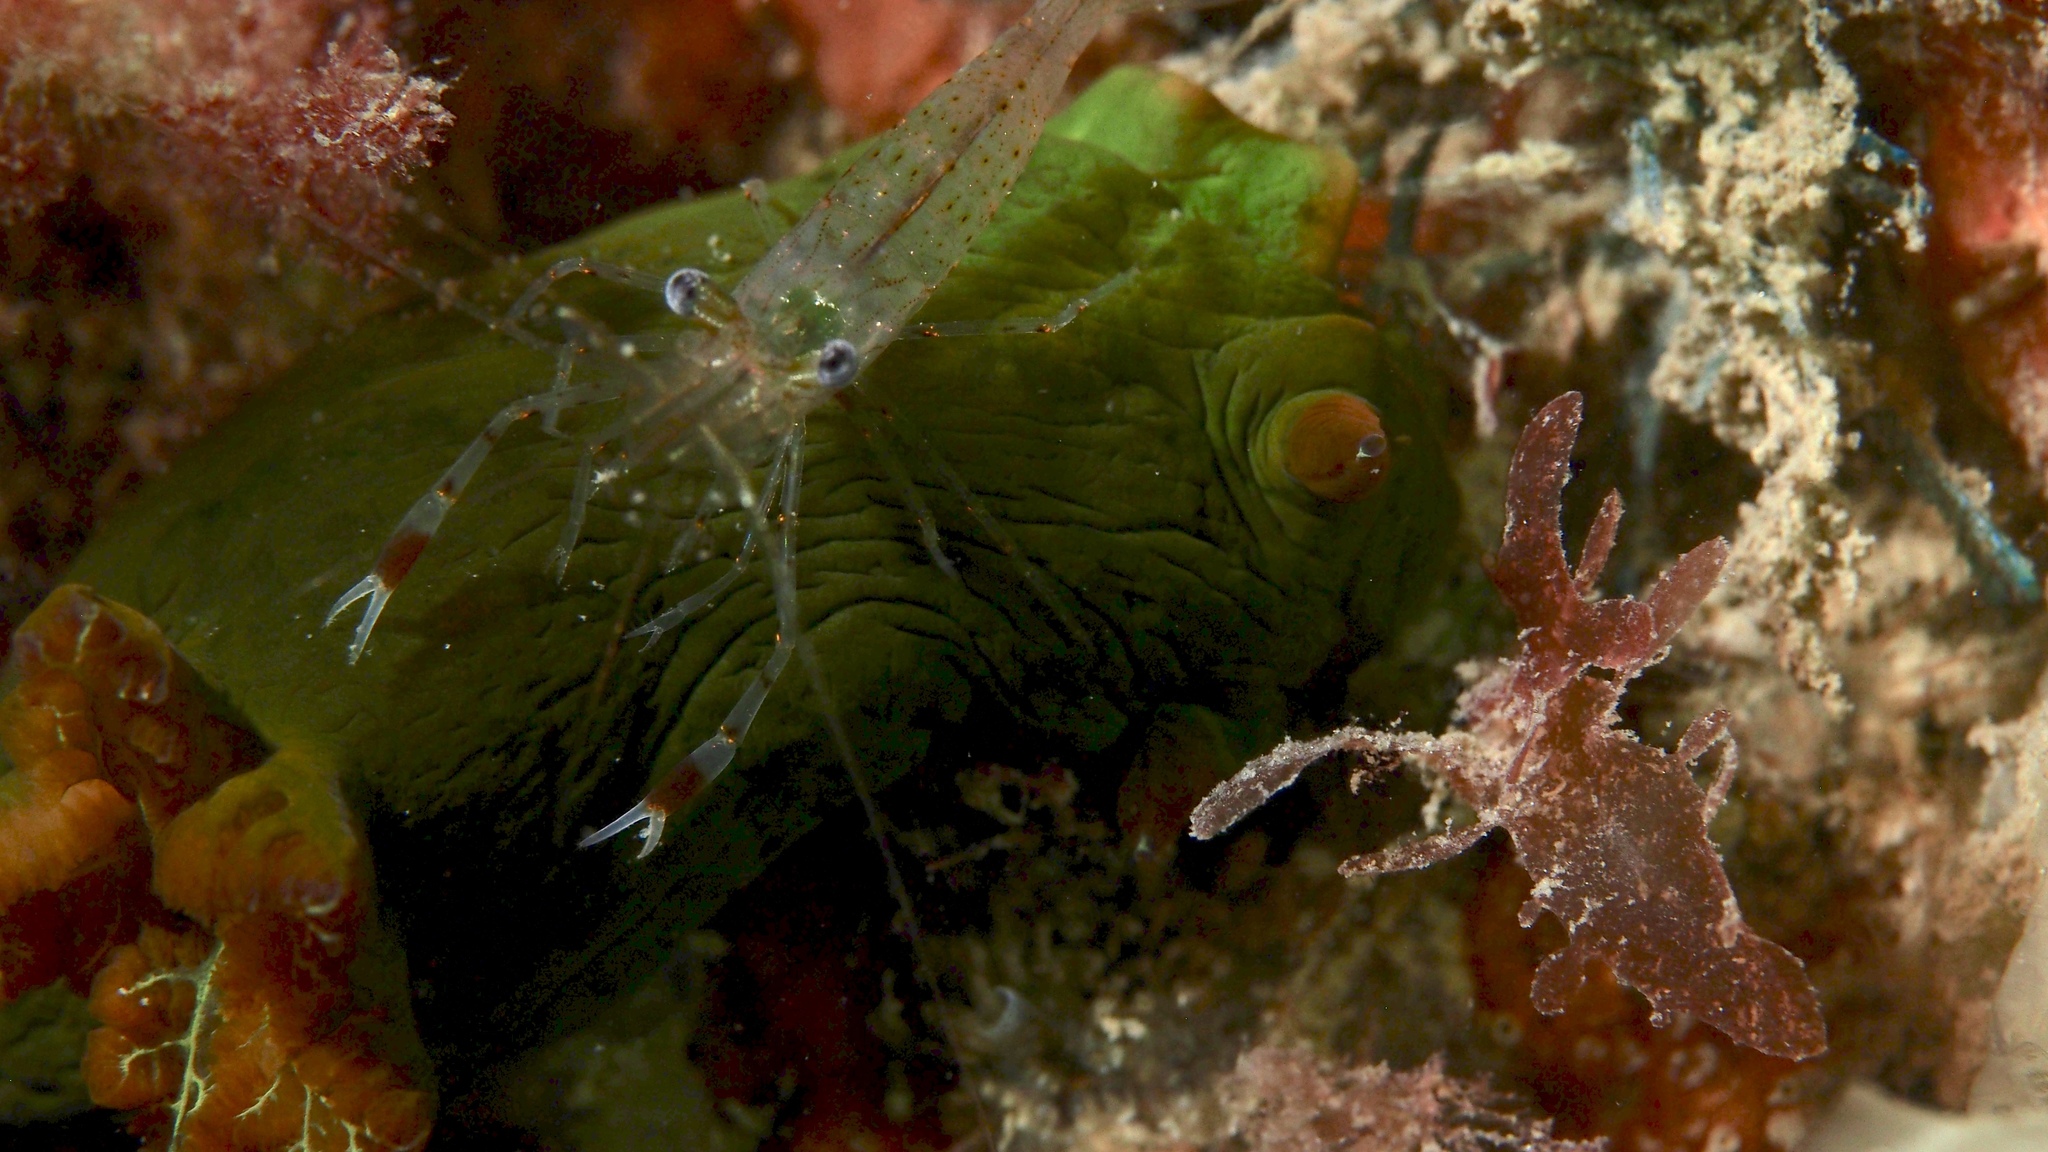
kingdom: Animalia
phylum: Mollusca
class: Gastropoda
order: Nudibranchia
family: Polyceridae
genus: Tambja
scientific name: Tambja dracomus
